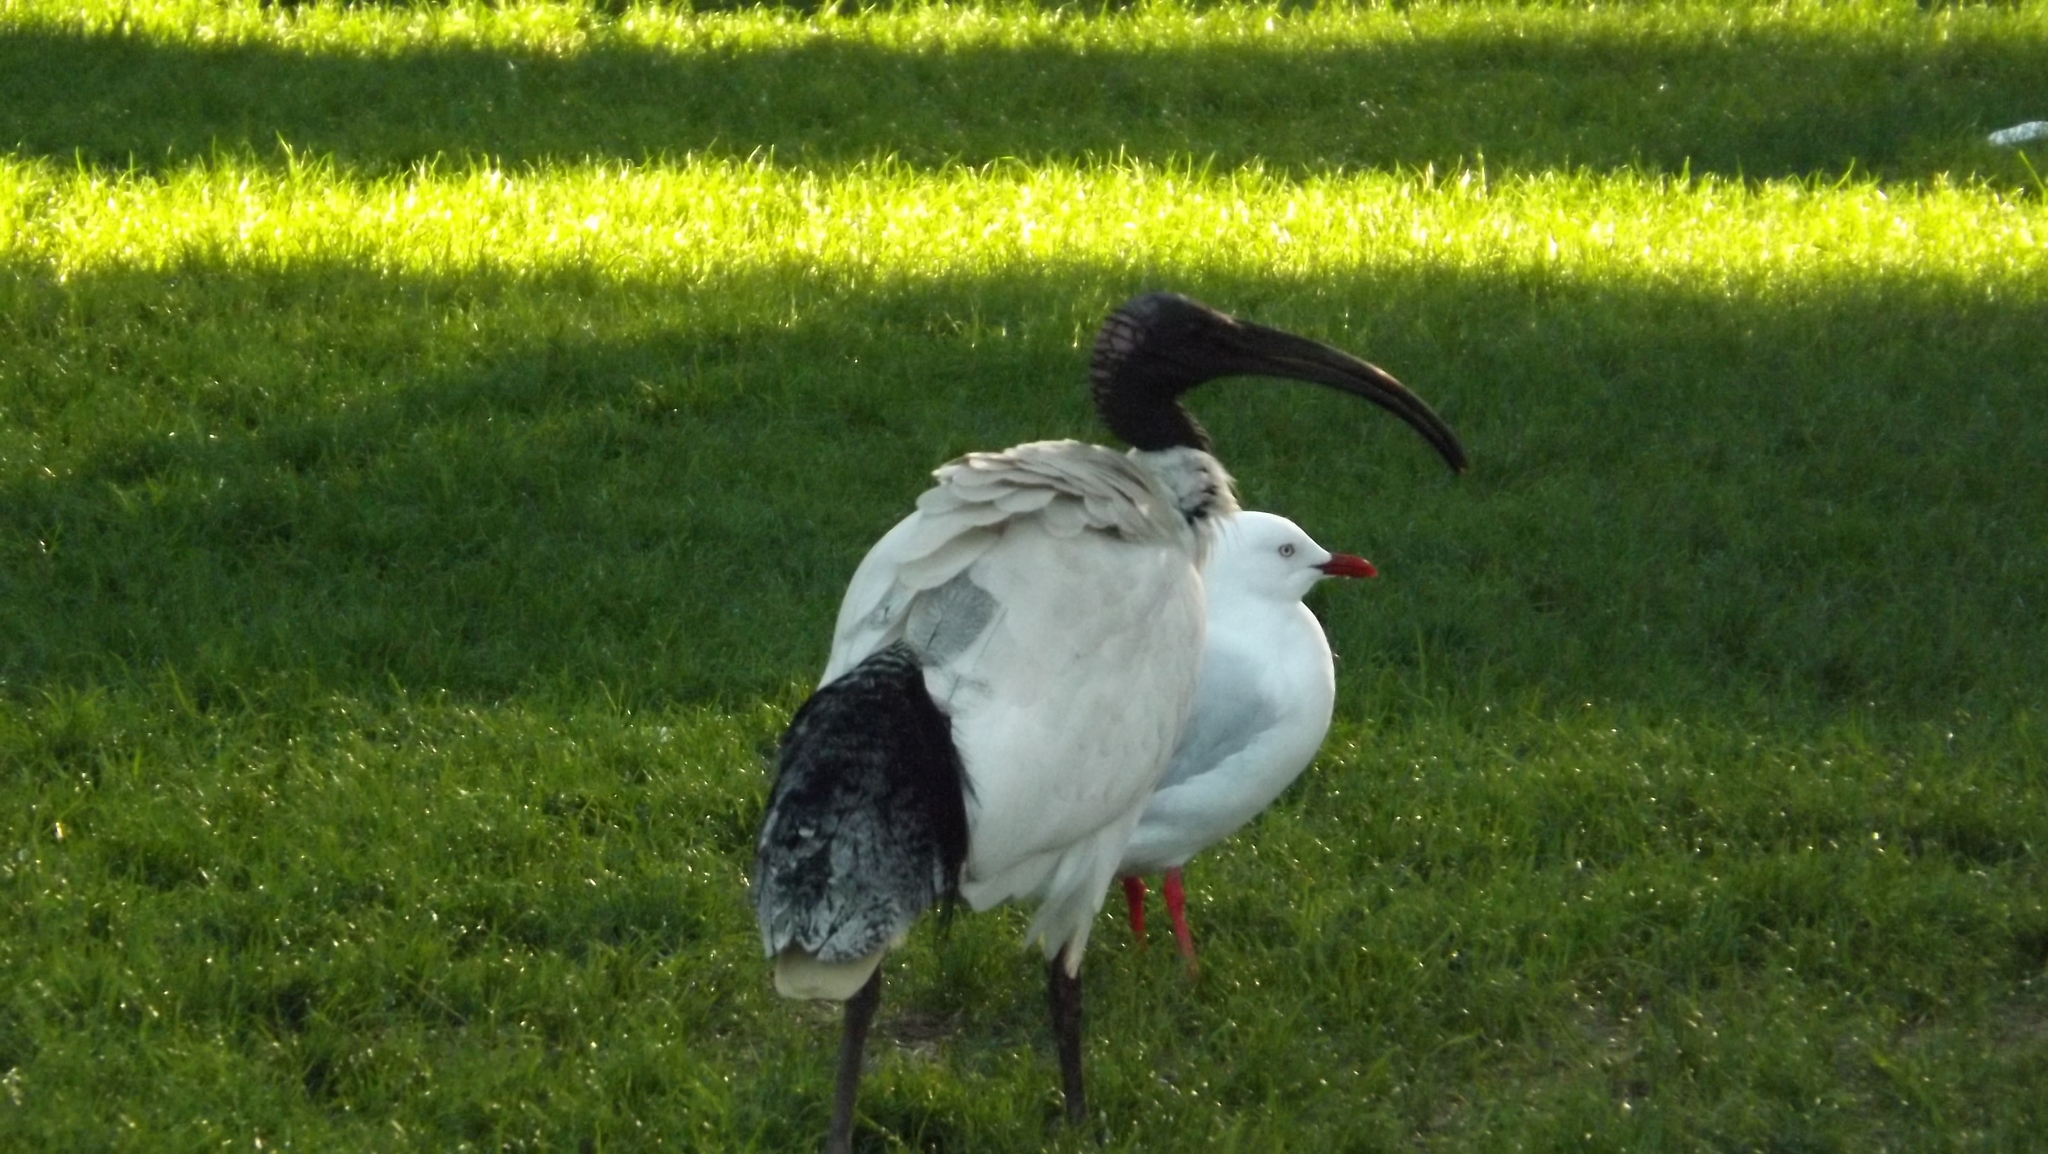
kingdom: Animalia
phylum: Chordata
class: Aves
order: Pelecaniformes
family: Threskiornithidae
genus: Threskiornis
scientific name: Threskiornis molucca
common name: Australian white ibis
